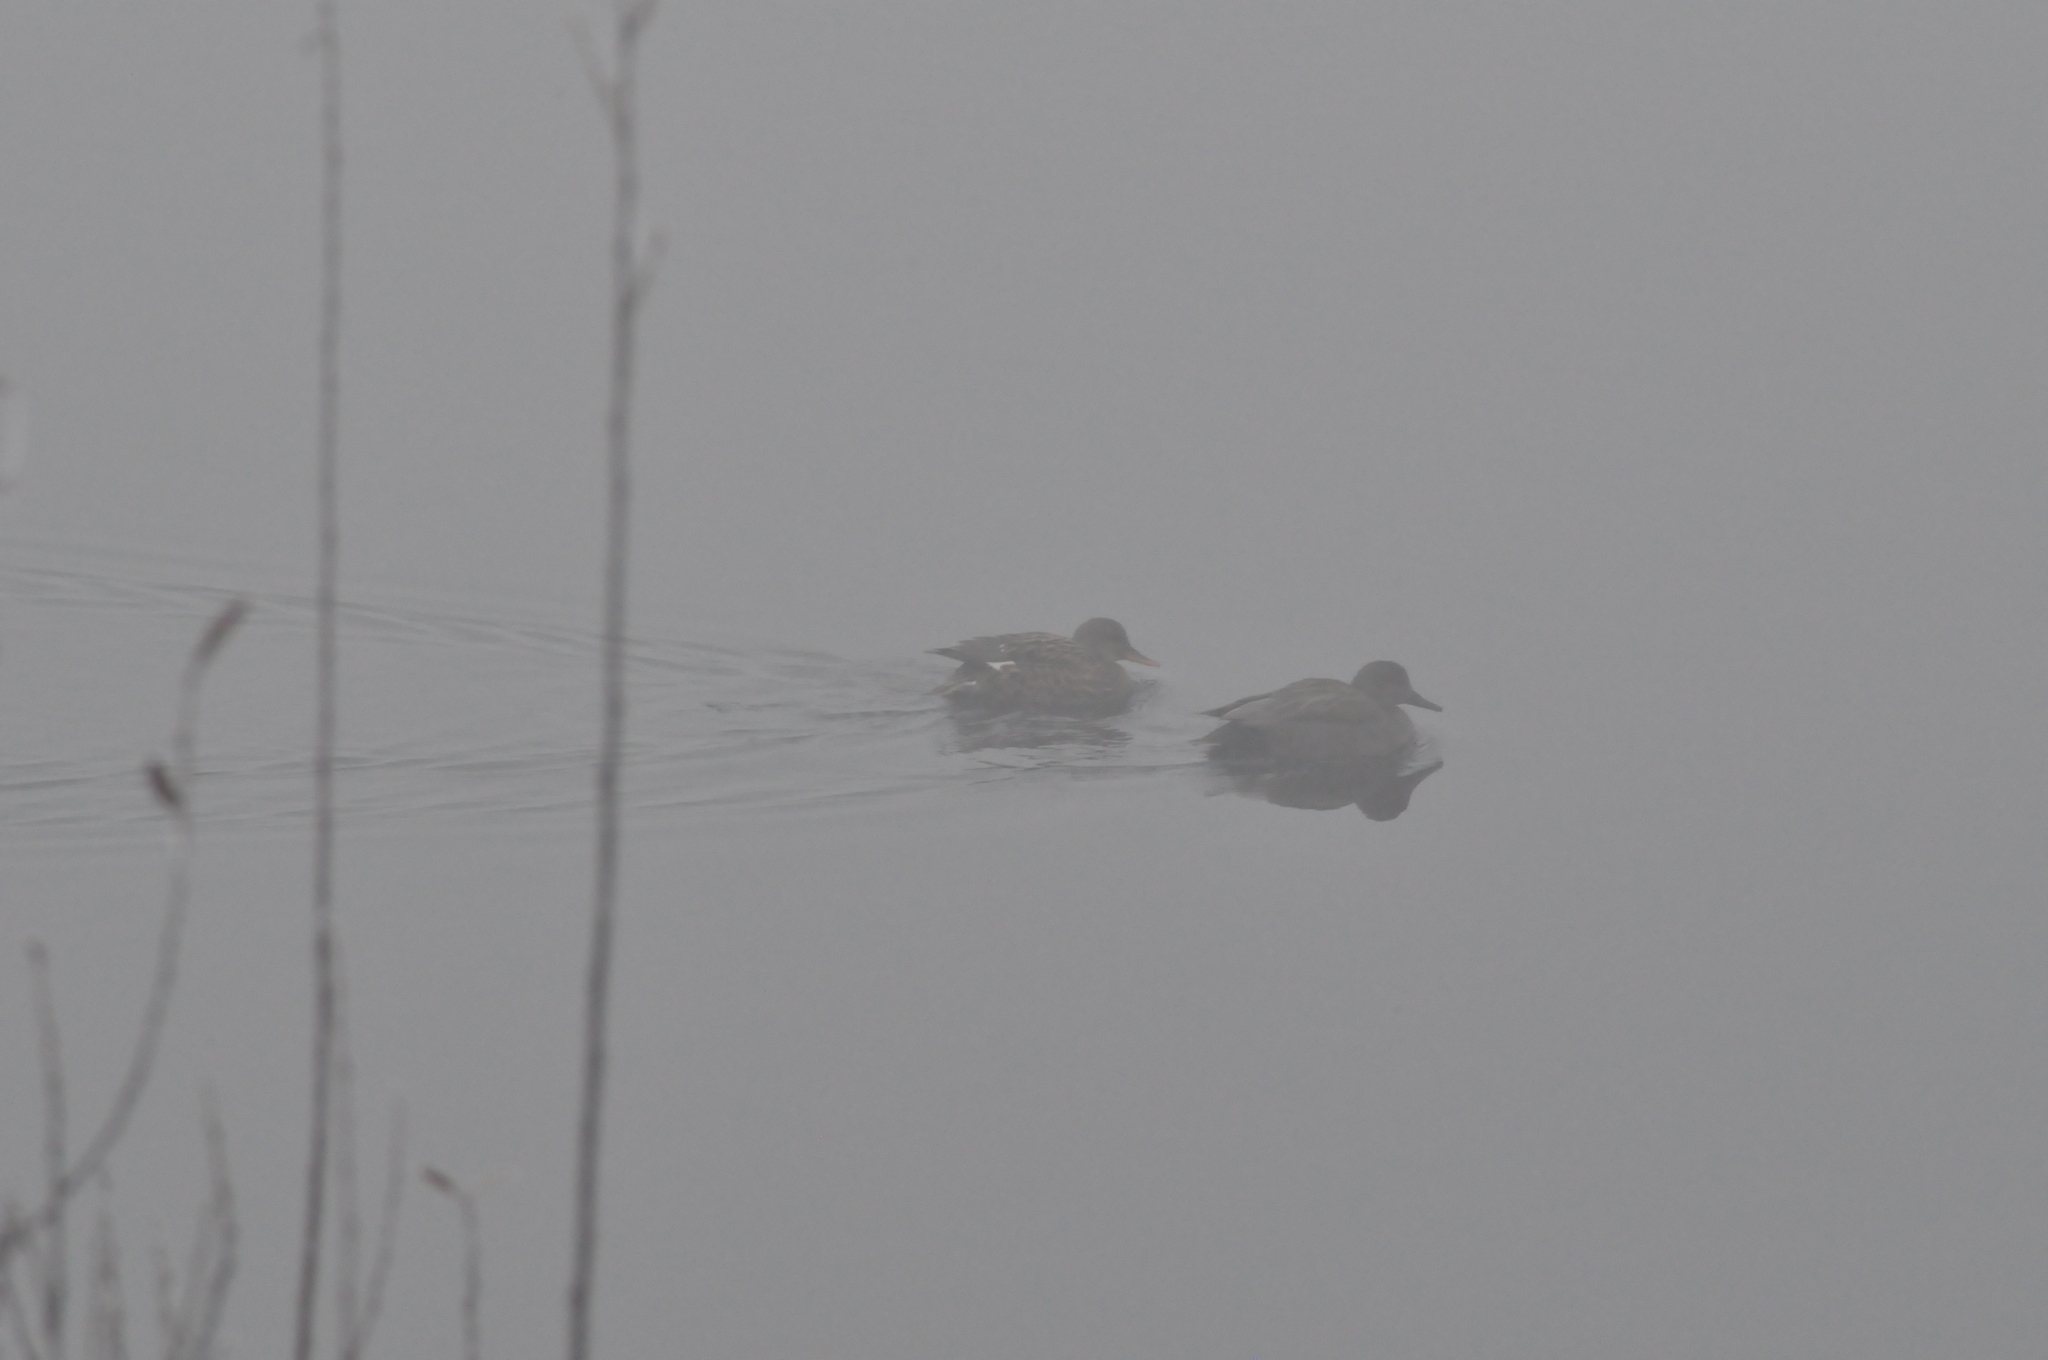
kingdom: Animalia
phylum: Chordata
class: Aves
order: Anseriformes
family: Anatidae
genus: Mareca
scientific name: Mareca strepera
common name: Gadwall
